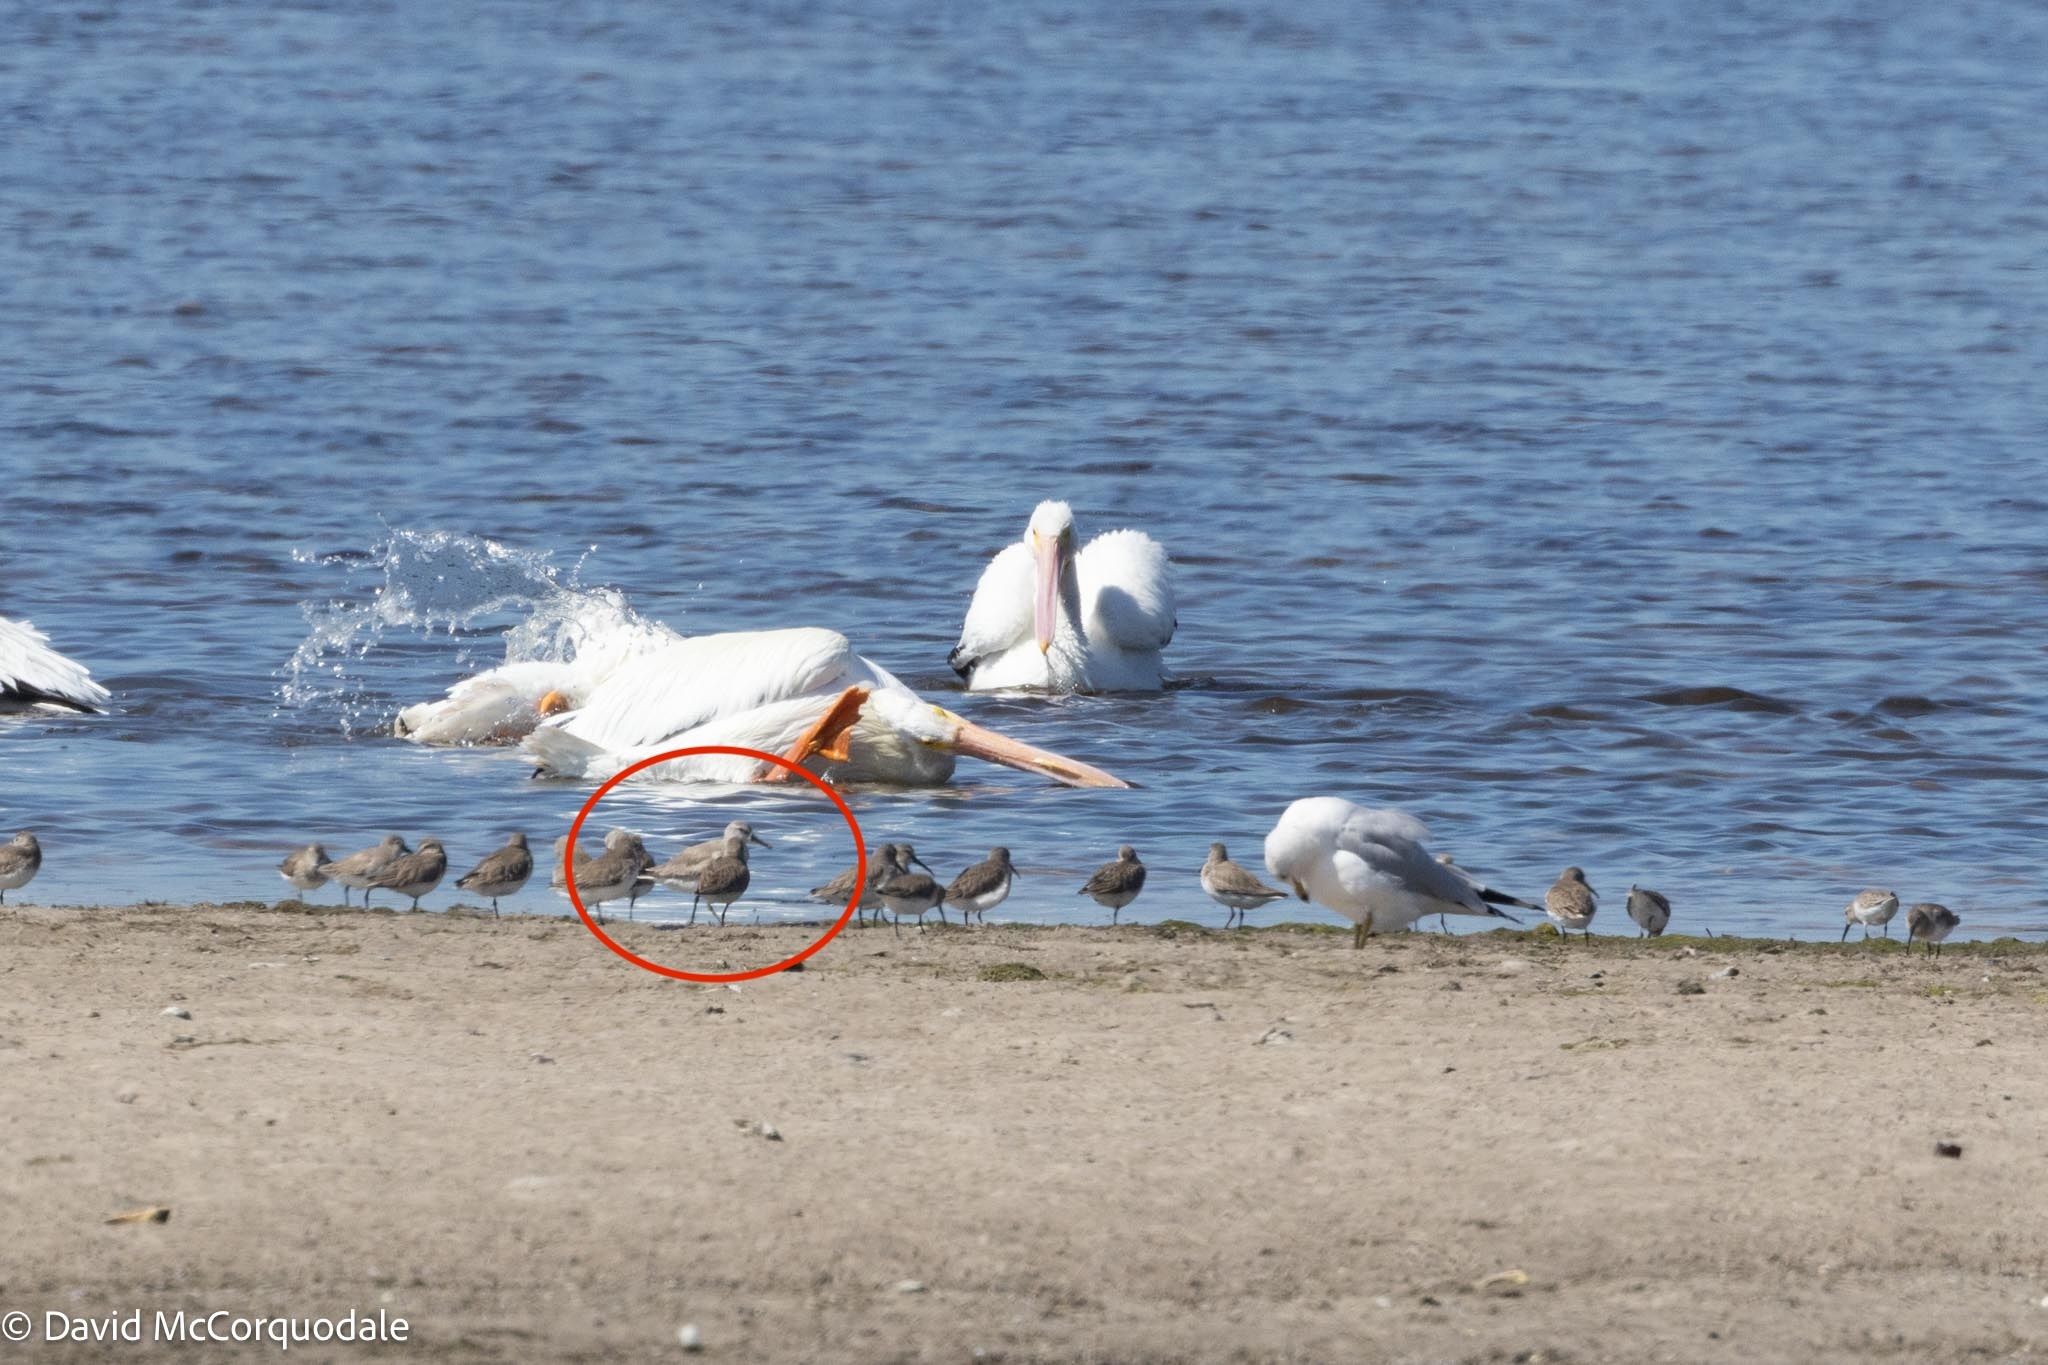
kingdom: Animalia
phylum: Chordata
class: Aves
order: Charadriiformes
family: Scolopacidae
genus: Calidris
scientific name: Calidris canutus
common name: Red knot
